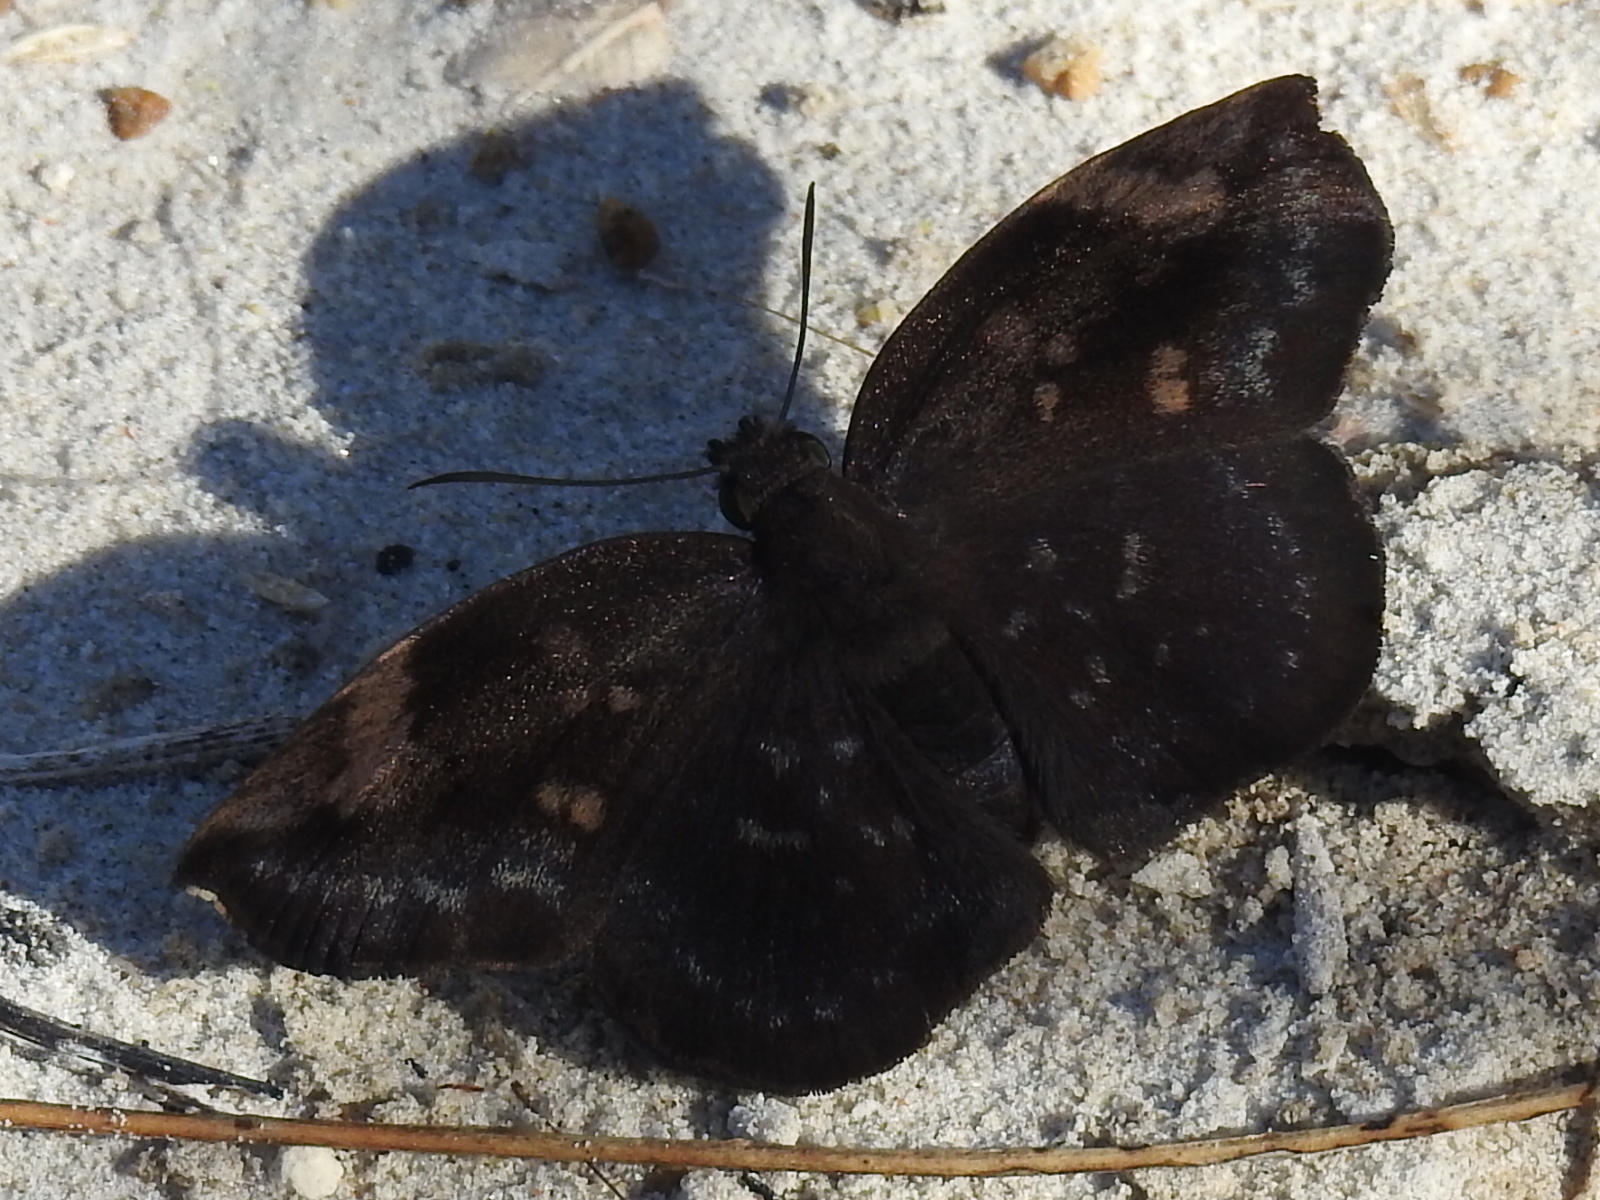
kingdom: Animalia
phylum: Arthropoda
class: Insecta
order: Lepidoptera
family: Hesperiidae
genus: Achlyodes
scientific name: Achlyodes thraso
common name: Sickle-winged skipper
